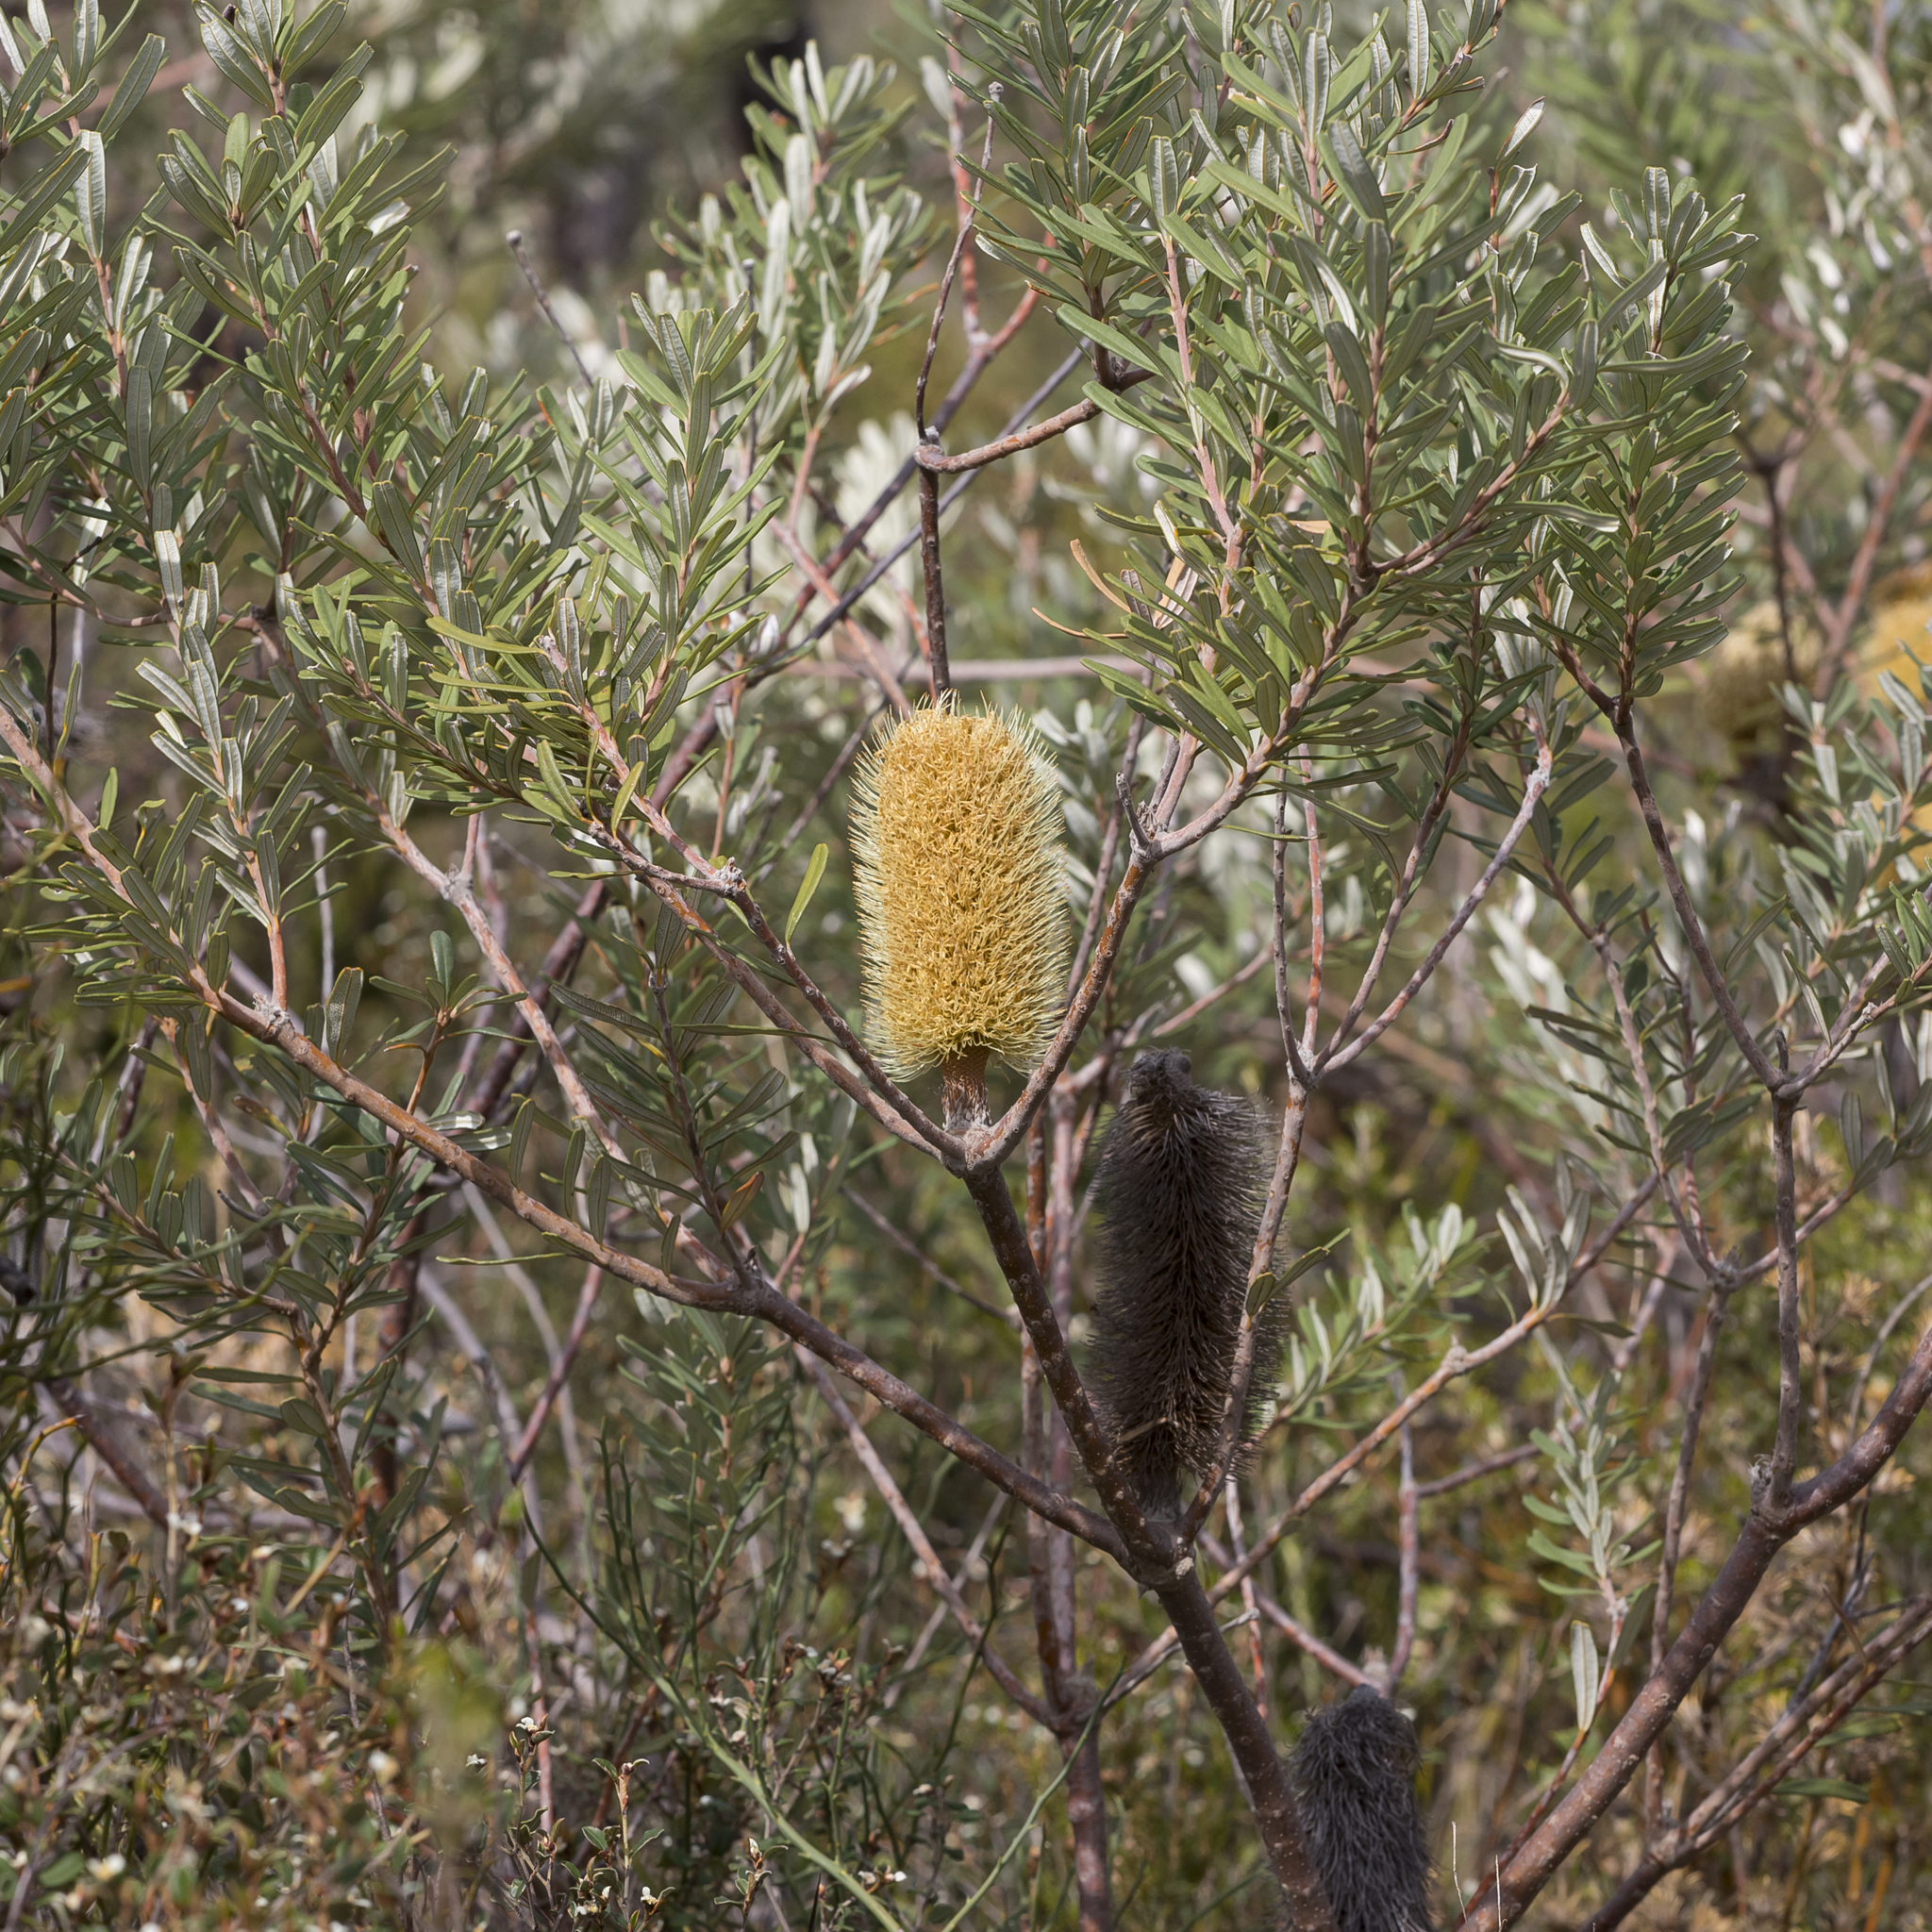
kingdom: Plantae
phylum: Tracheophyta
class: Magnoliopsida
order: Proteales
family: Proteaceae
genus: Banksia
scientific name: Banksia marginata
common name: Silver banksia
